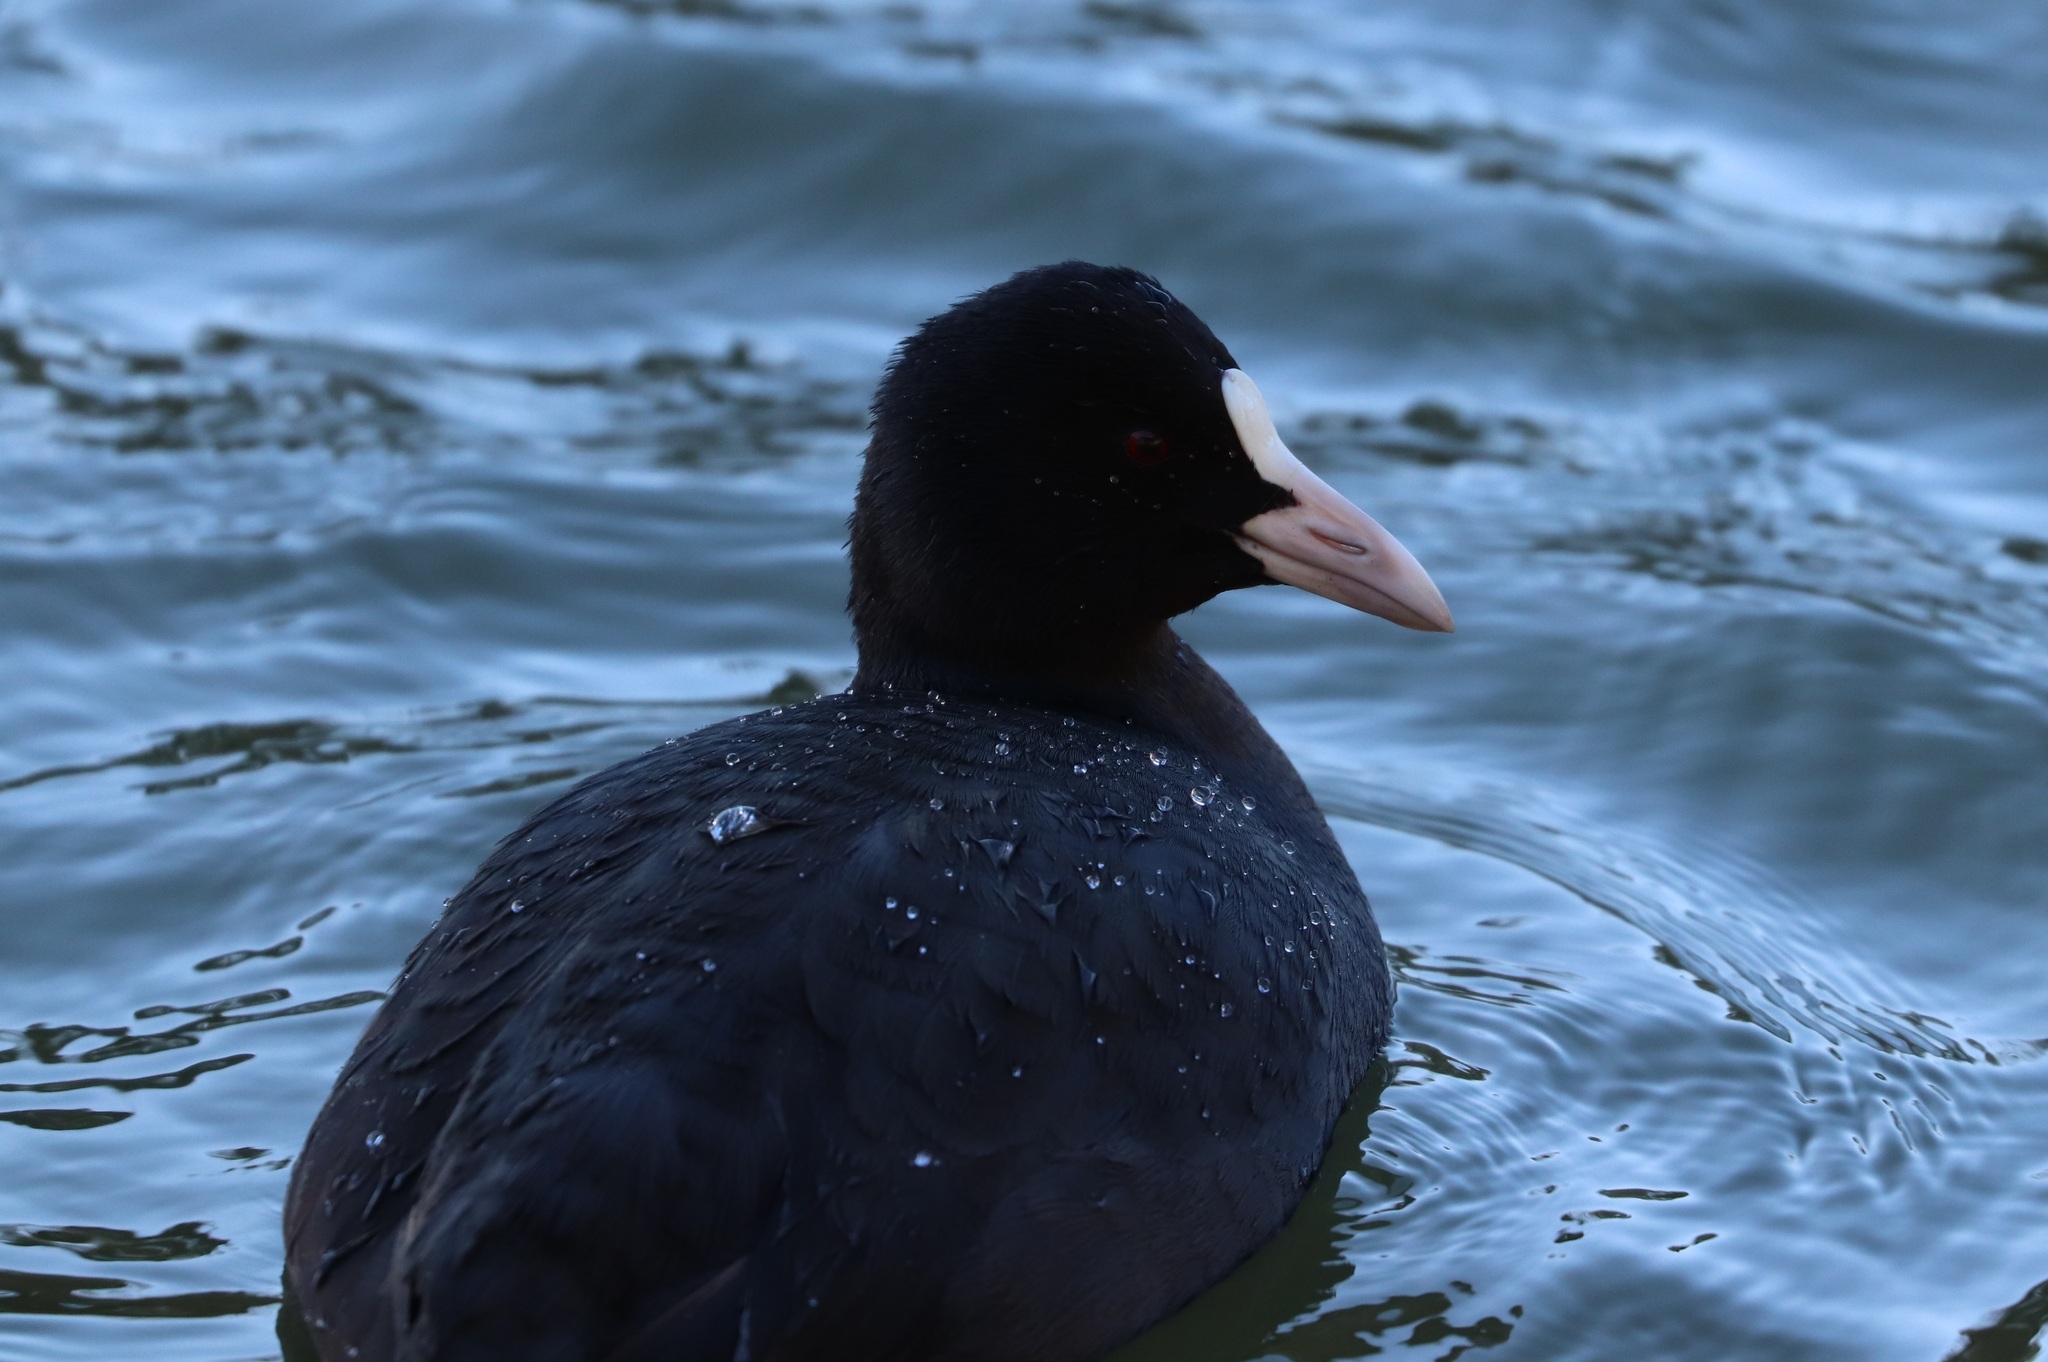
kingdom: Animalia
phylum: Chordata
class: Aves
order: Gruiformes
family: Rallidae
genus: Fulica
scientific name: Fulica atra
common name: Eurasian coot
